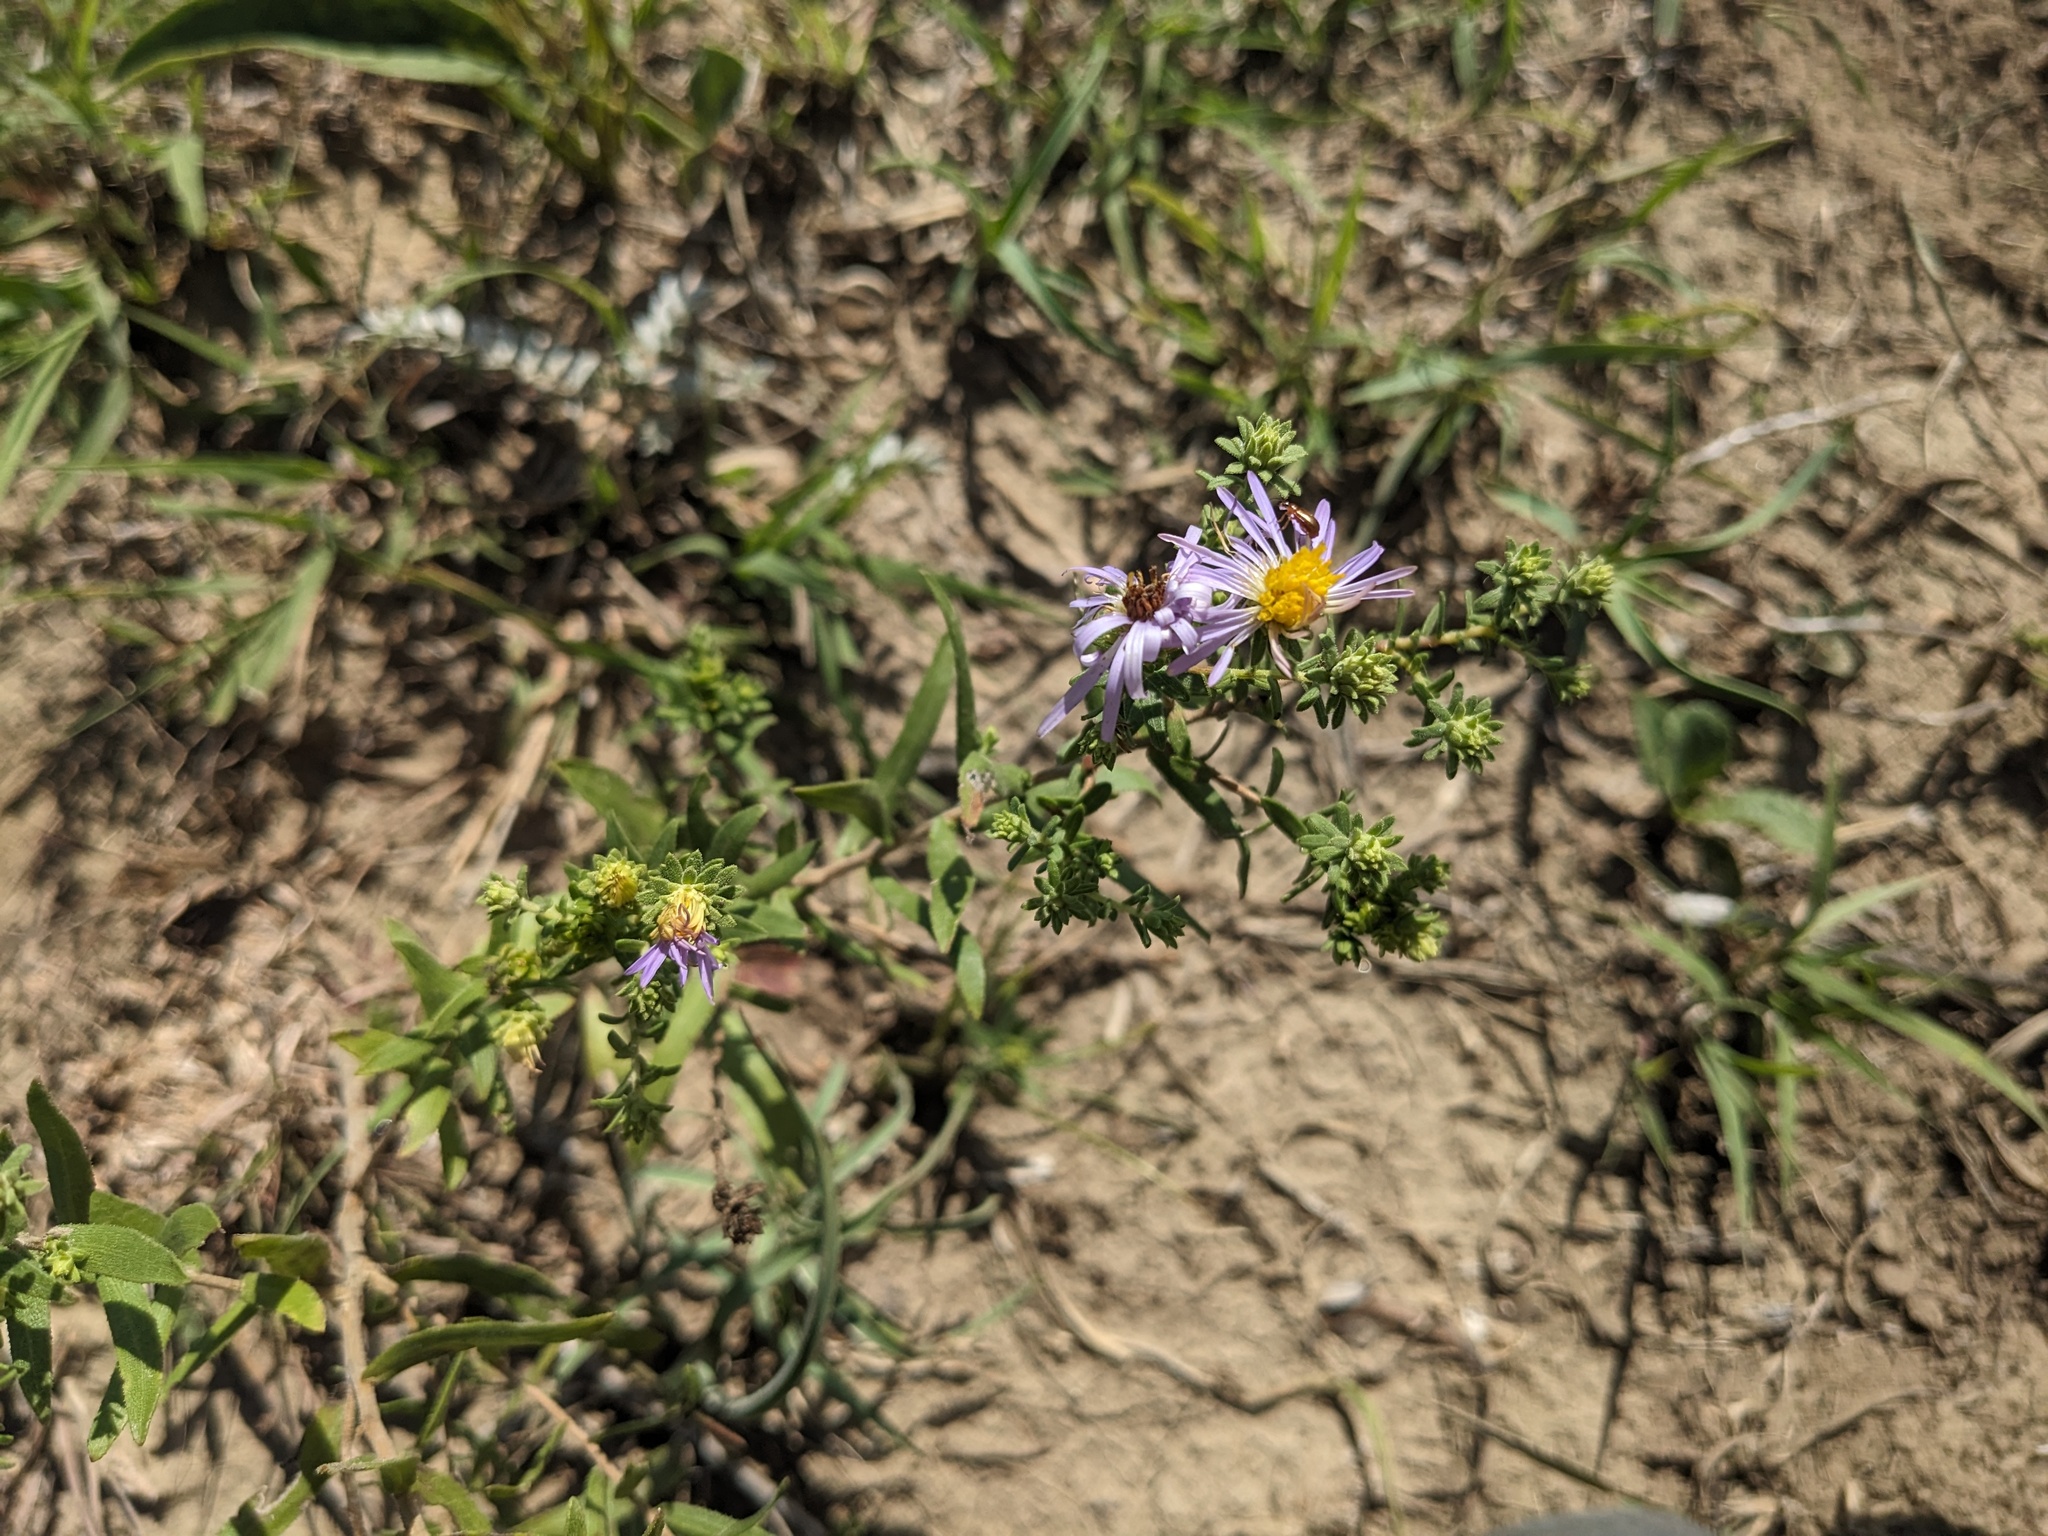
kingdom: Plantae
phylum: Tracheophyta
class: Magnoliopsida
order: Asterales
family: Asteraceae
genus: Symphyotrichum
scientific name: Symphyotrichum oblongifolium
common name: Aromatic aster
